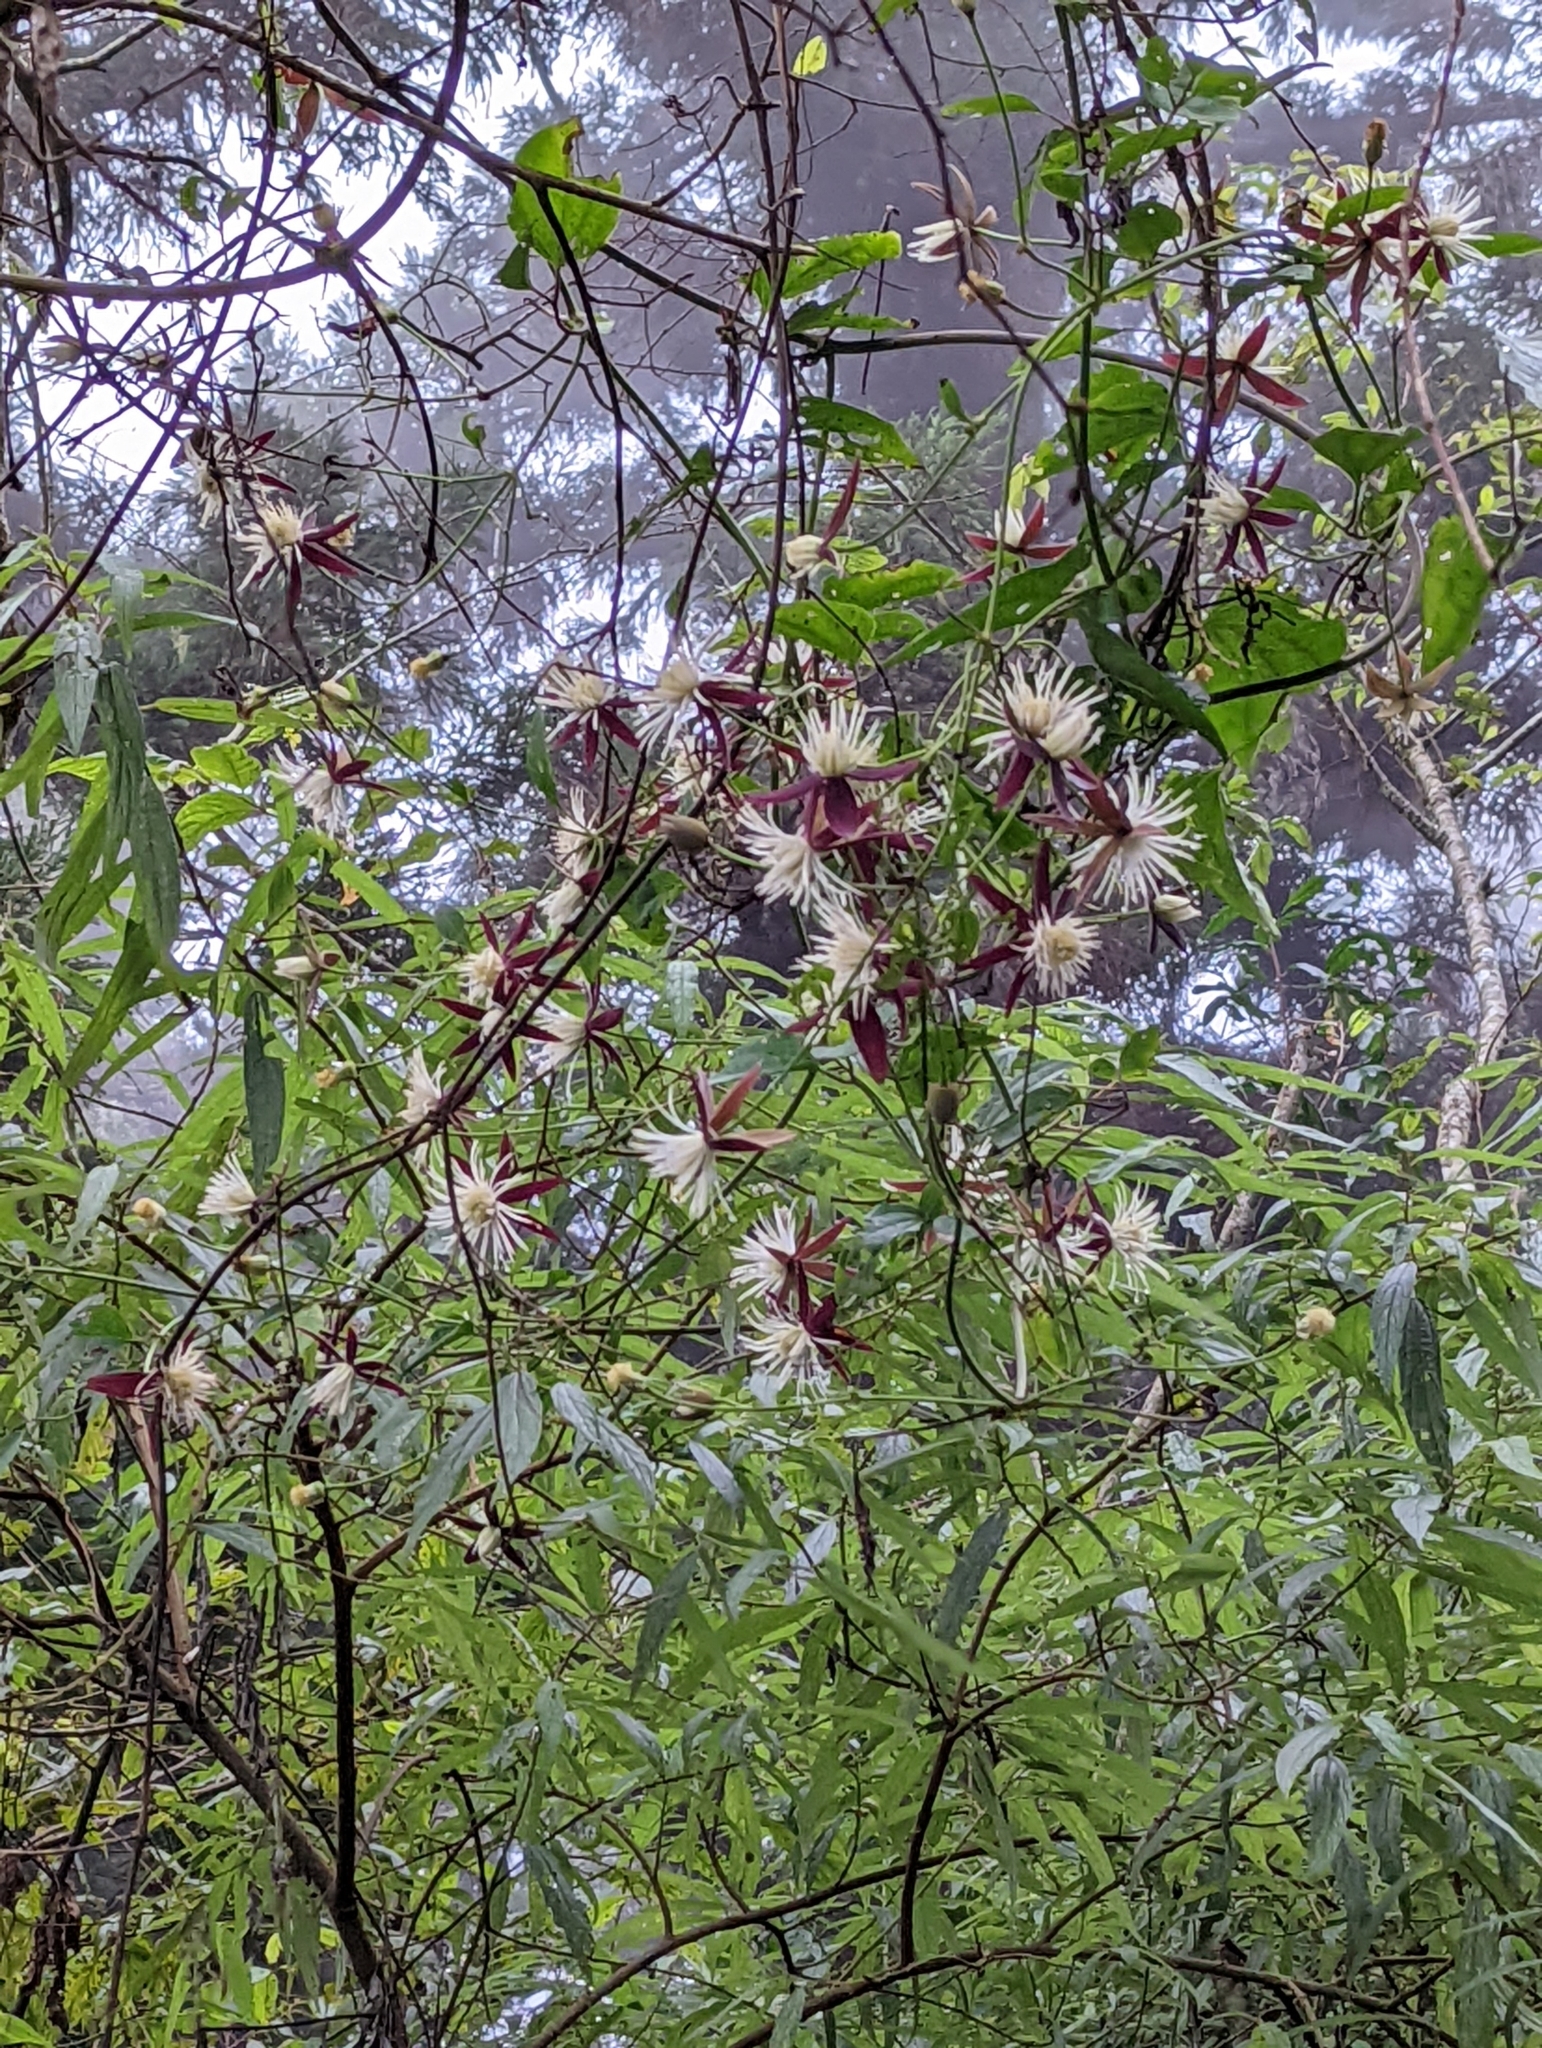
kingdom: Plantae
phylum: Tracheophyta
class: Magnoliopsida
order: Ranunculales
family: Ranunculaceae
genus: Clematis
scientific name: Clematis tashiroi
